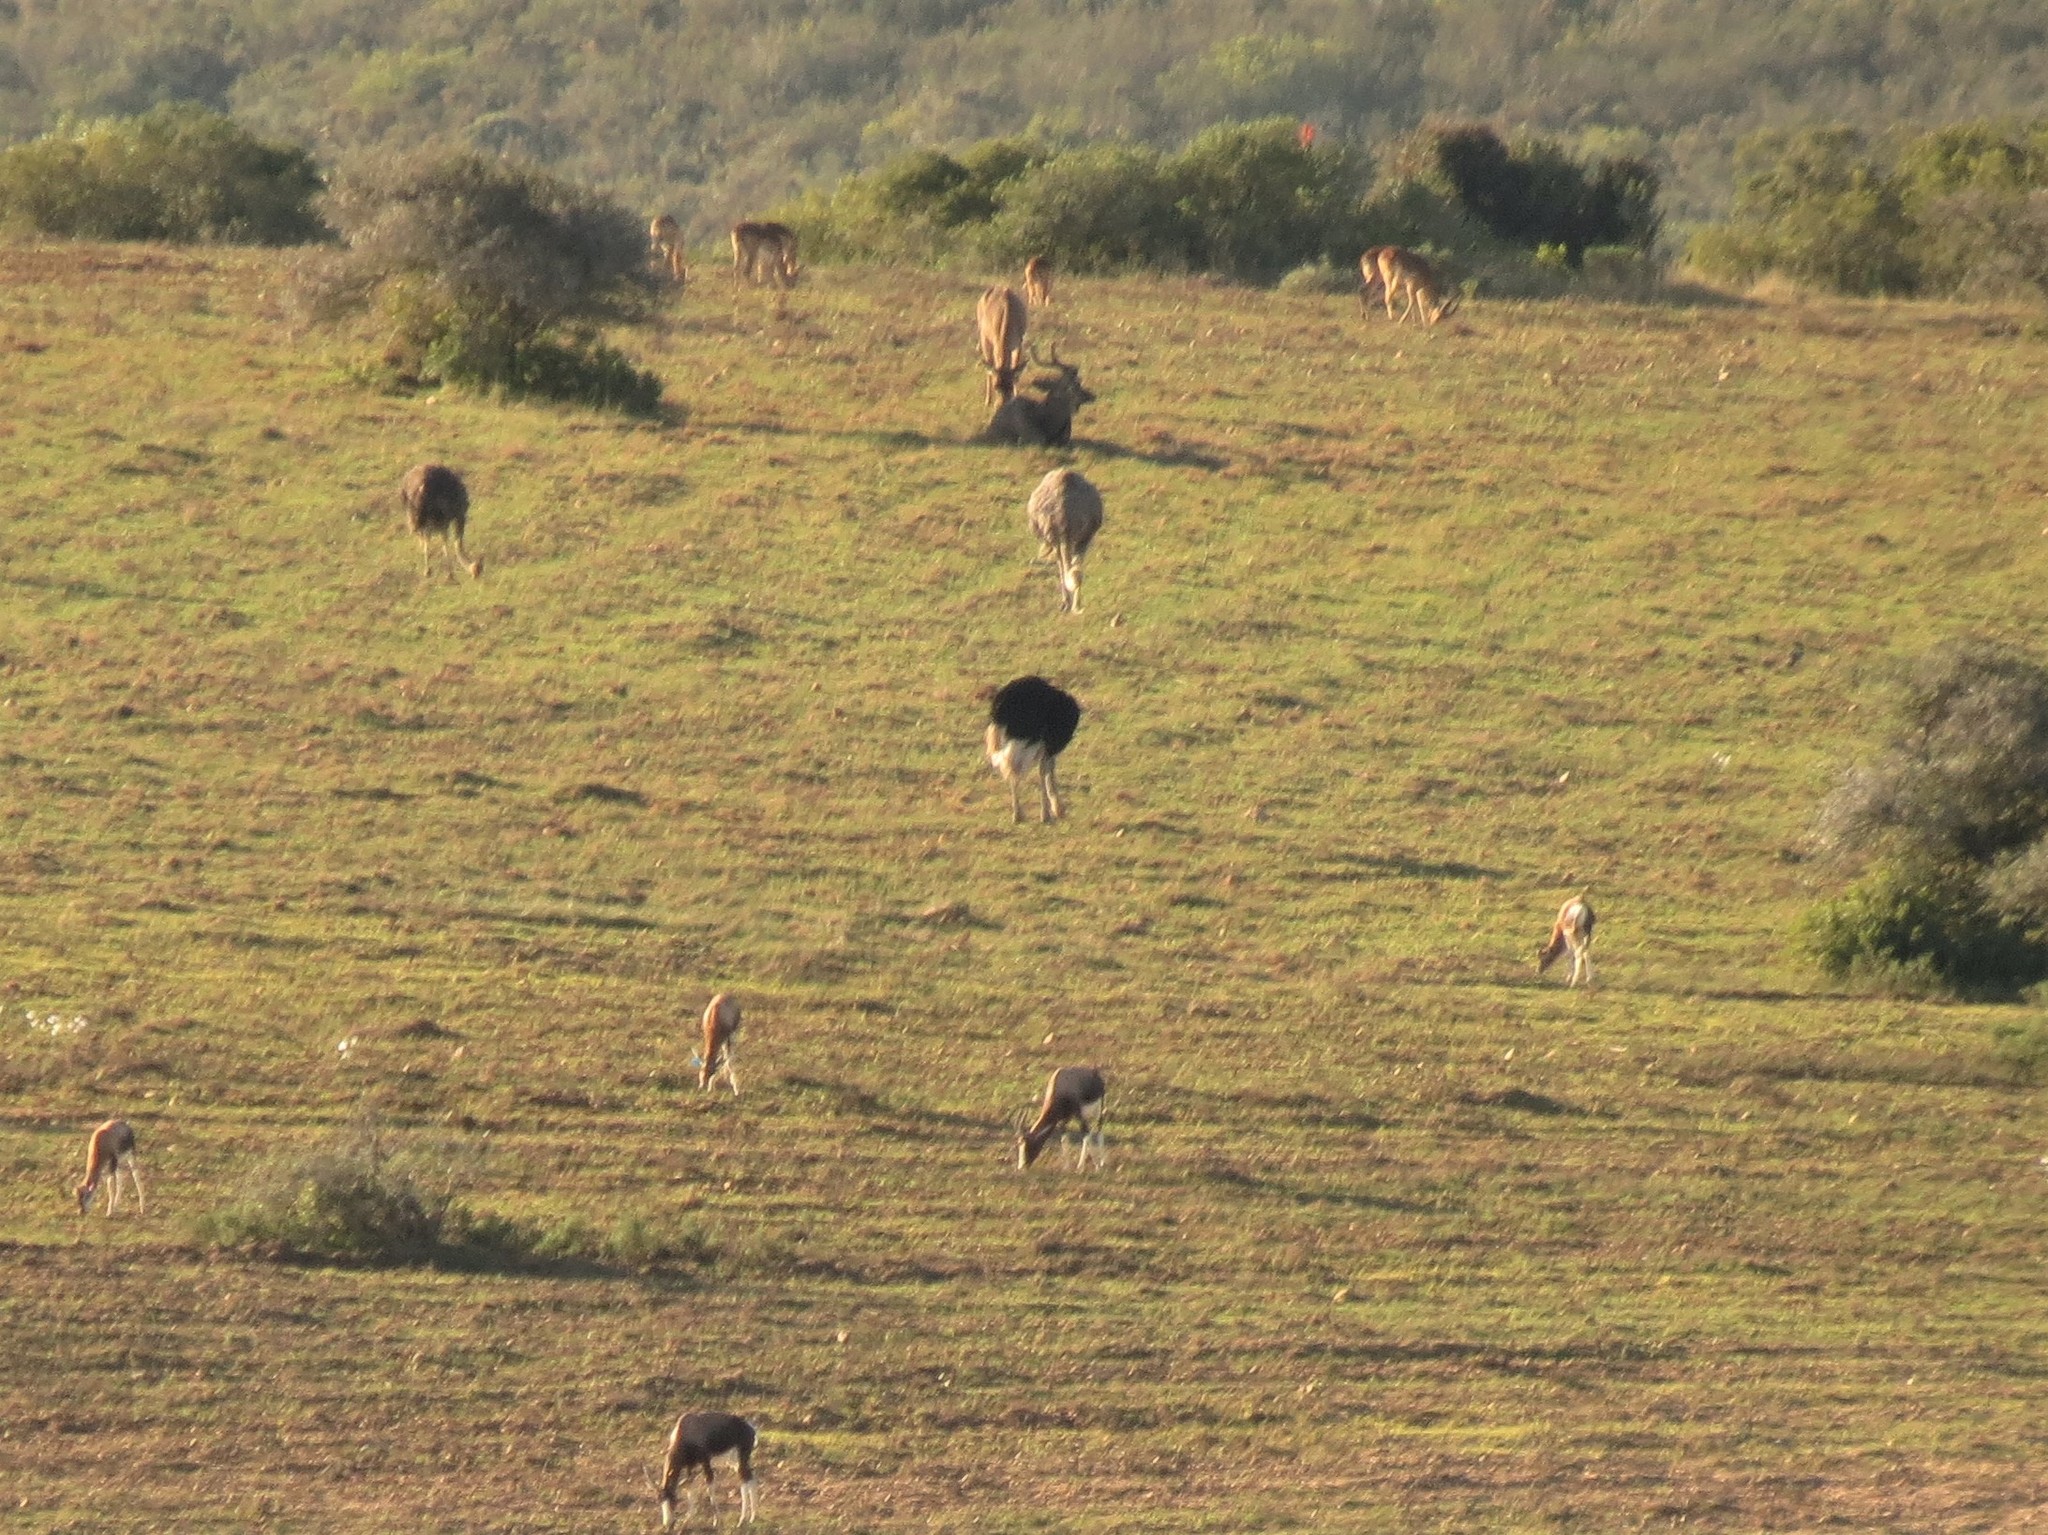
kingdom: Animalia
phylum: Chordata
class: Mammalia
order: Artiodactyla
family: Bovidae
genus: Tragelaphus
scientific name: Tragelaphus strepsiceros
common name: Greater kudu
